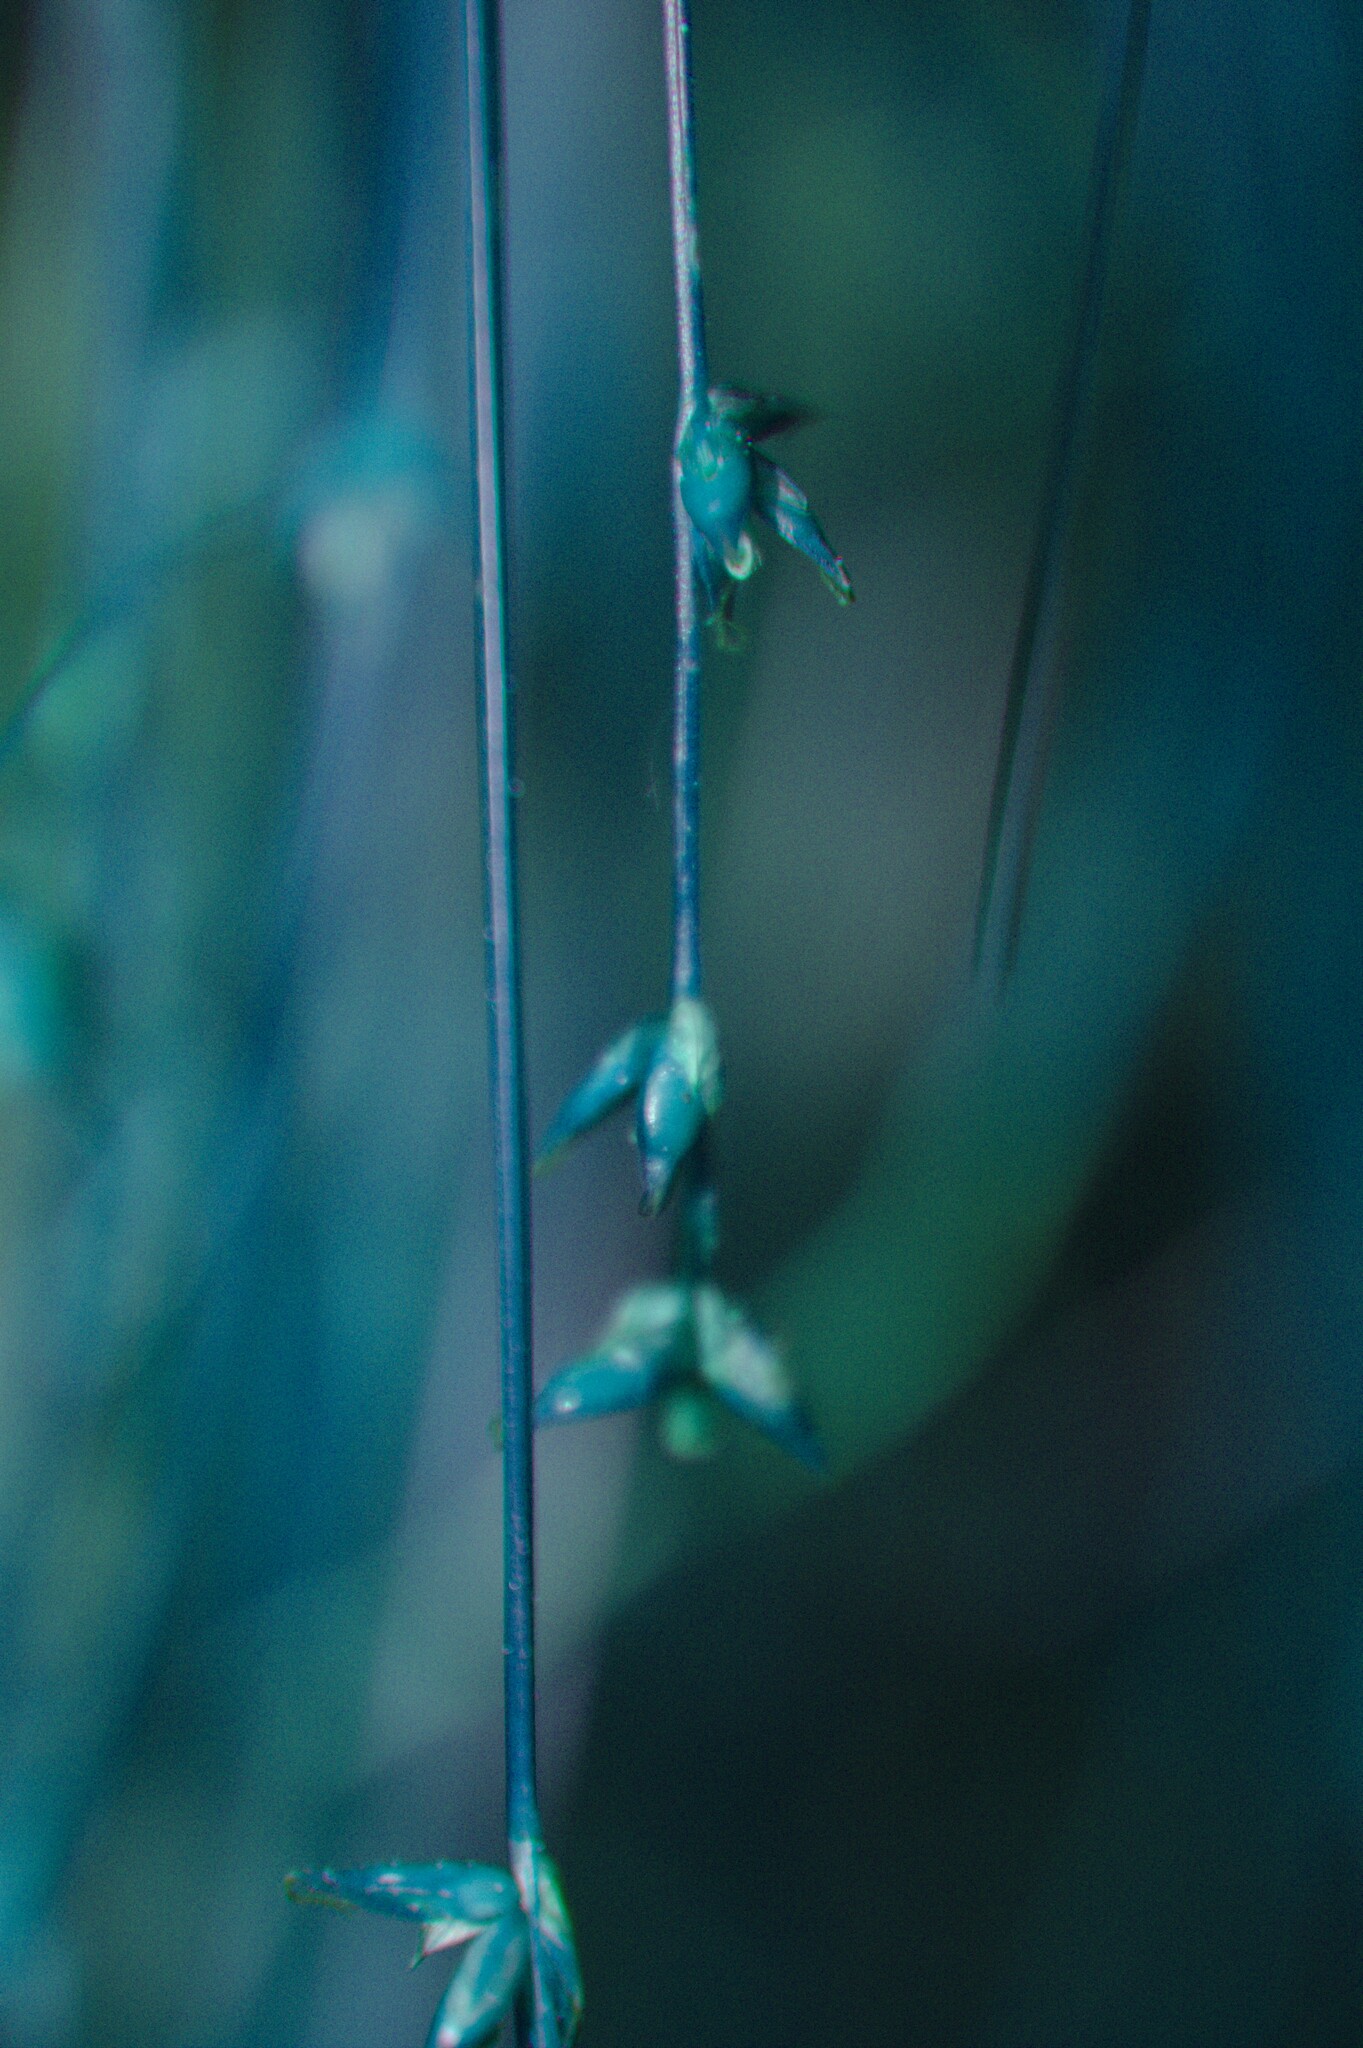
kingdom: Plantae
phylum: Tracheophyta
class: Liliopsida
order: Poales
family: Cyperaceae
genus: Carex
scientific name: Carex radiata
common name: Eastern star sedge
